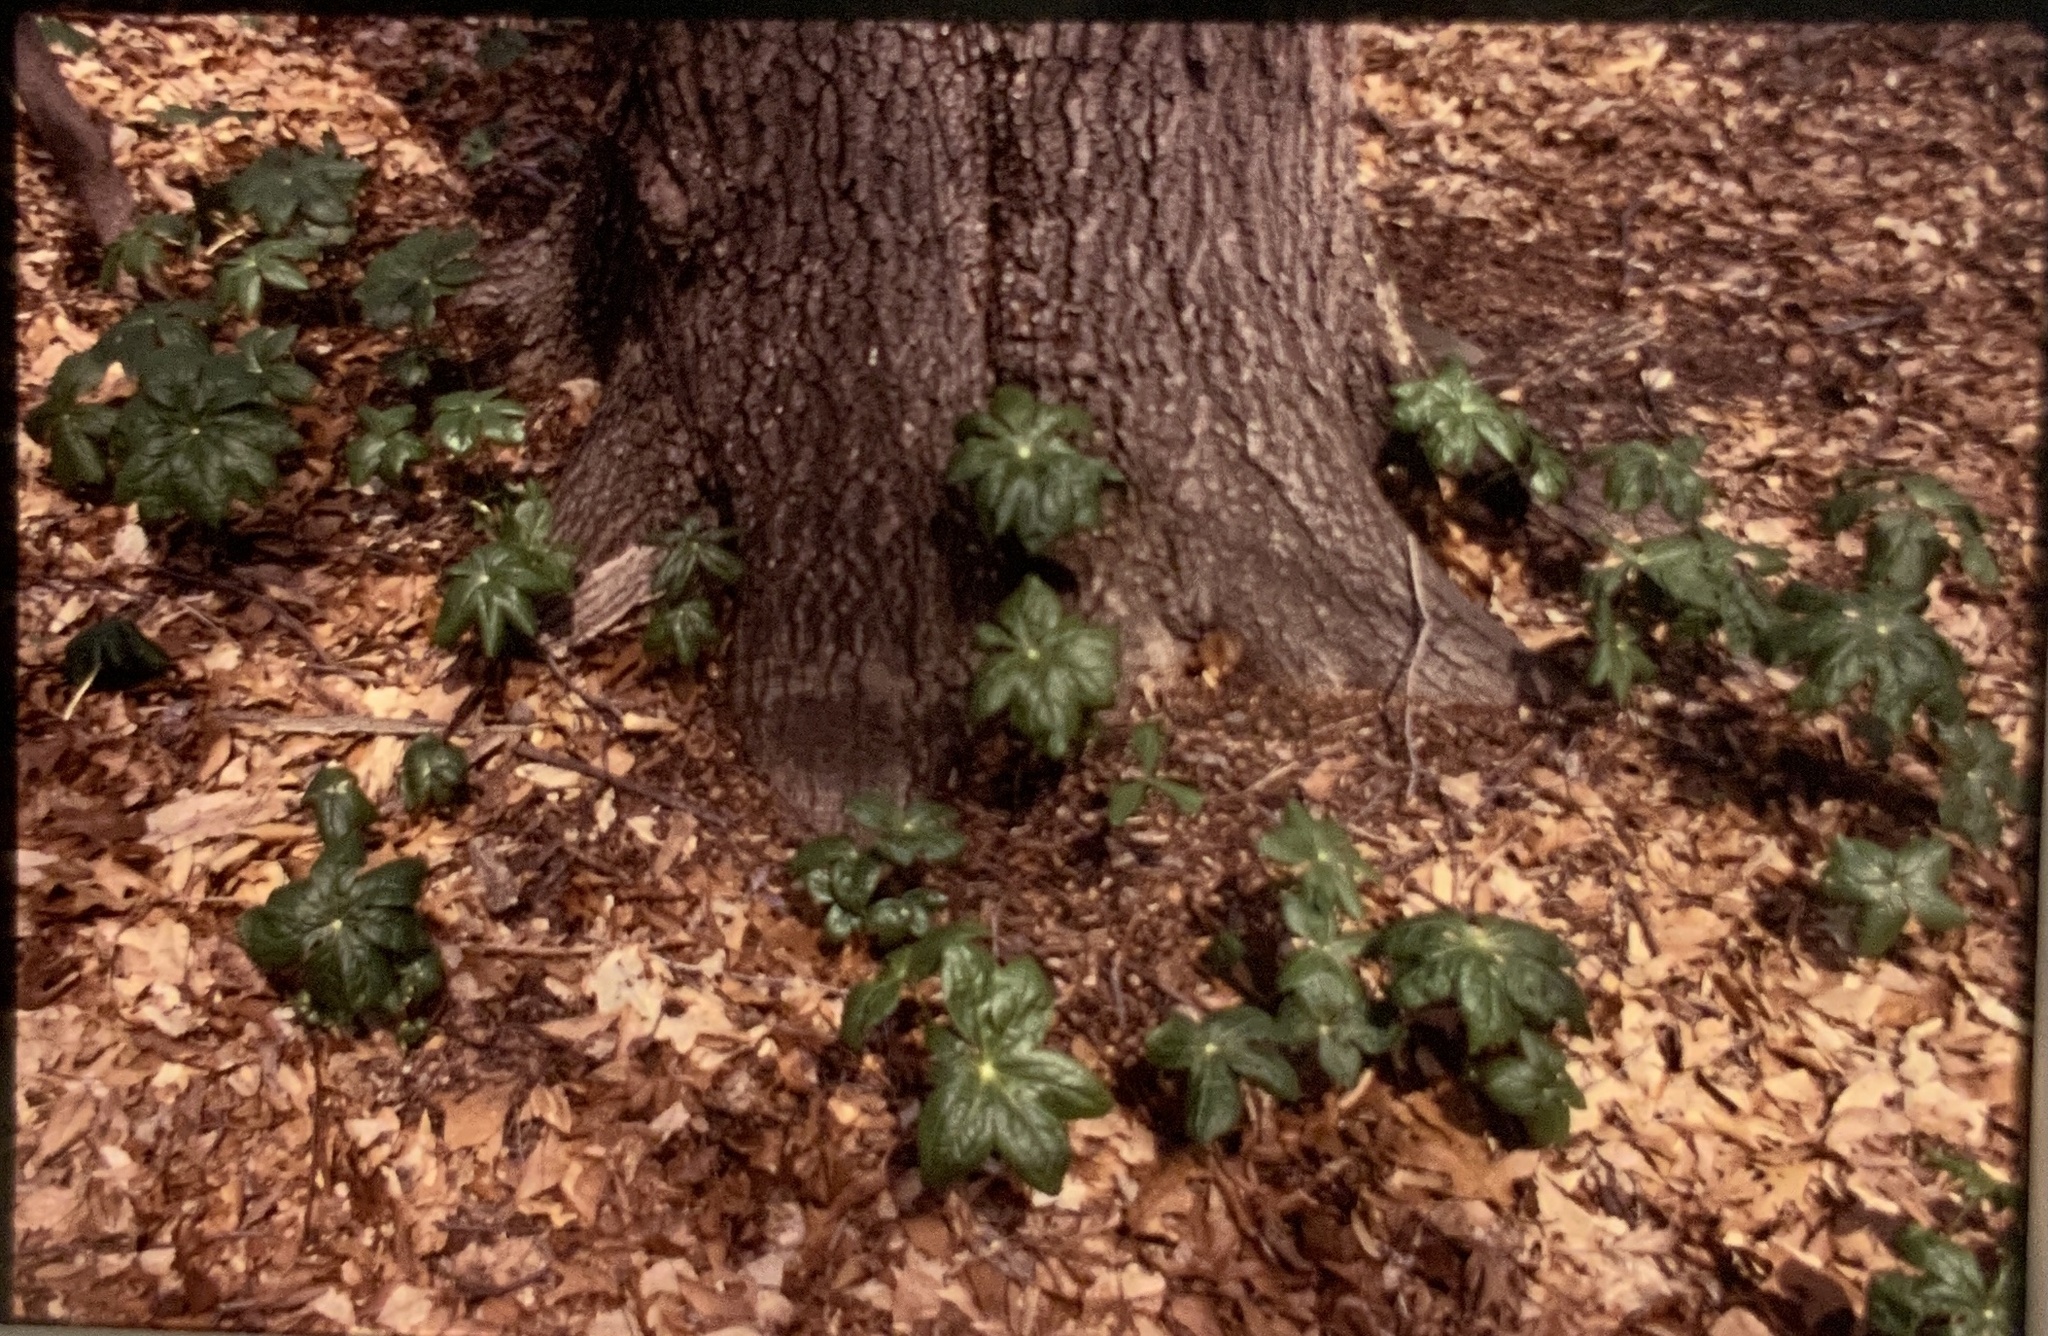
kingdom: Plantae
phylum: Tracheophyta
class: Magnoliopsida
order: Ranunculales
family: Berberidaceae
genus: Podophyllum
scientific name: Podophyllum peltatum
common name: Wild mandrake
